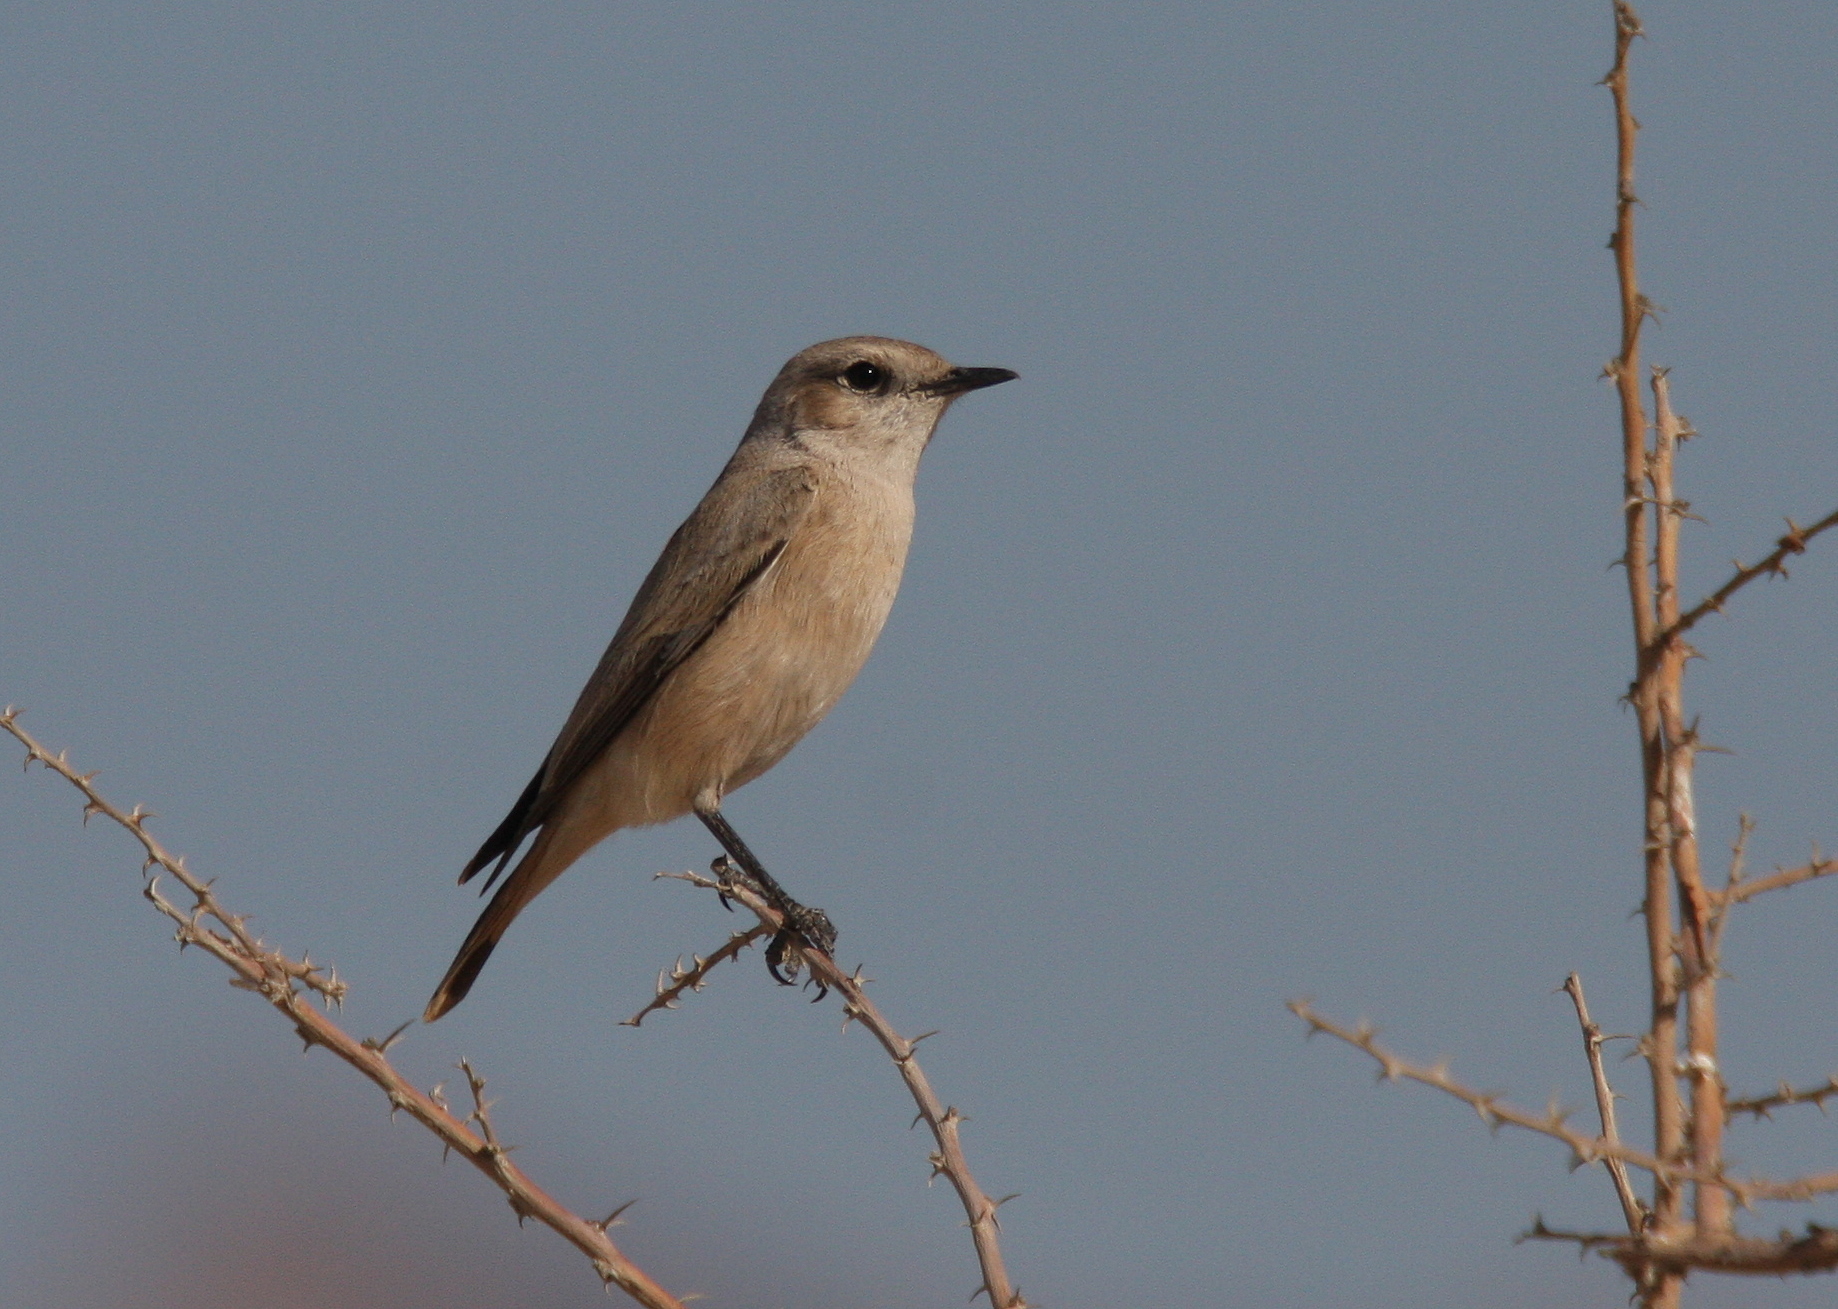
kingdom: Animalia
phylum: Chordata
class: Aves
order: Passeriformes
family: Muscicapidae
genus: Oenanthe
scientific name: Oenanthe chrysopygia
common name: Red-tailed wheatear
